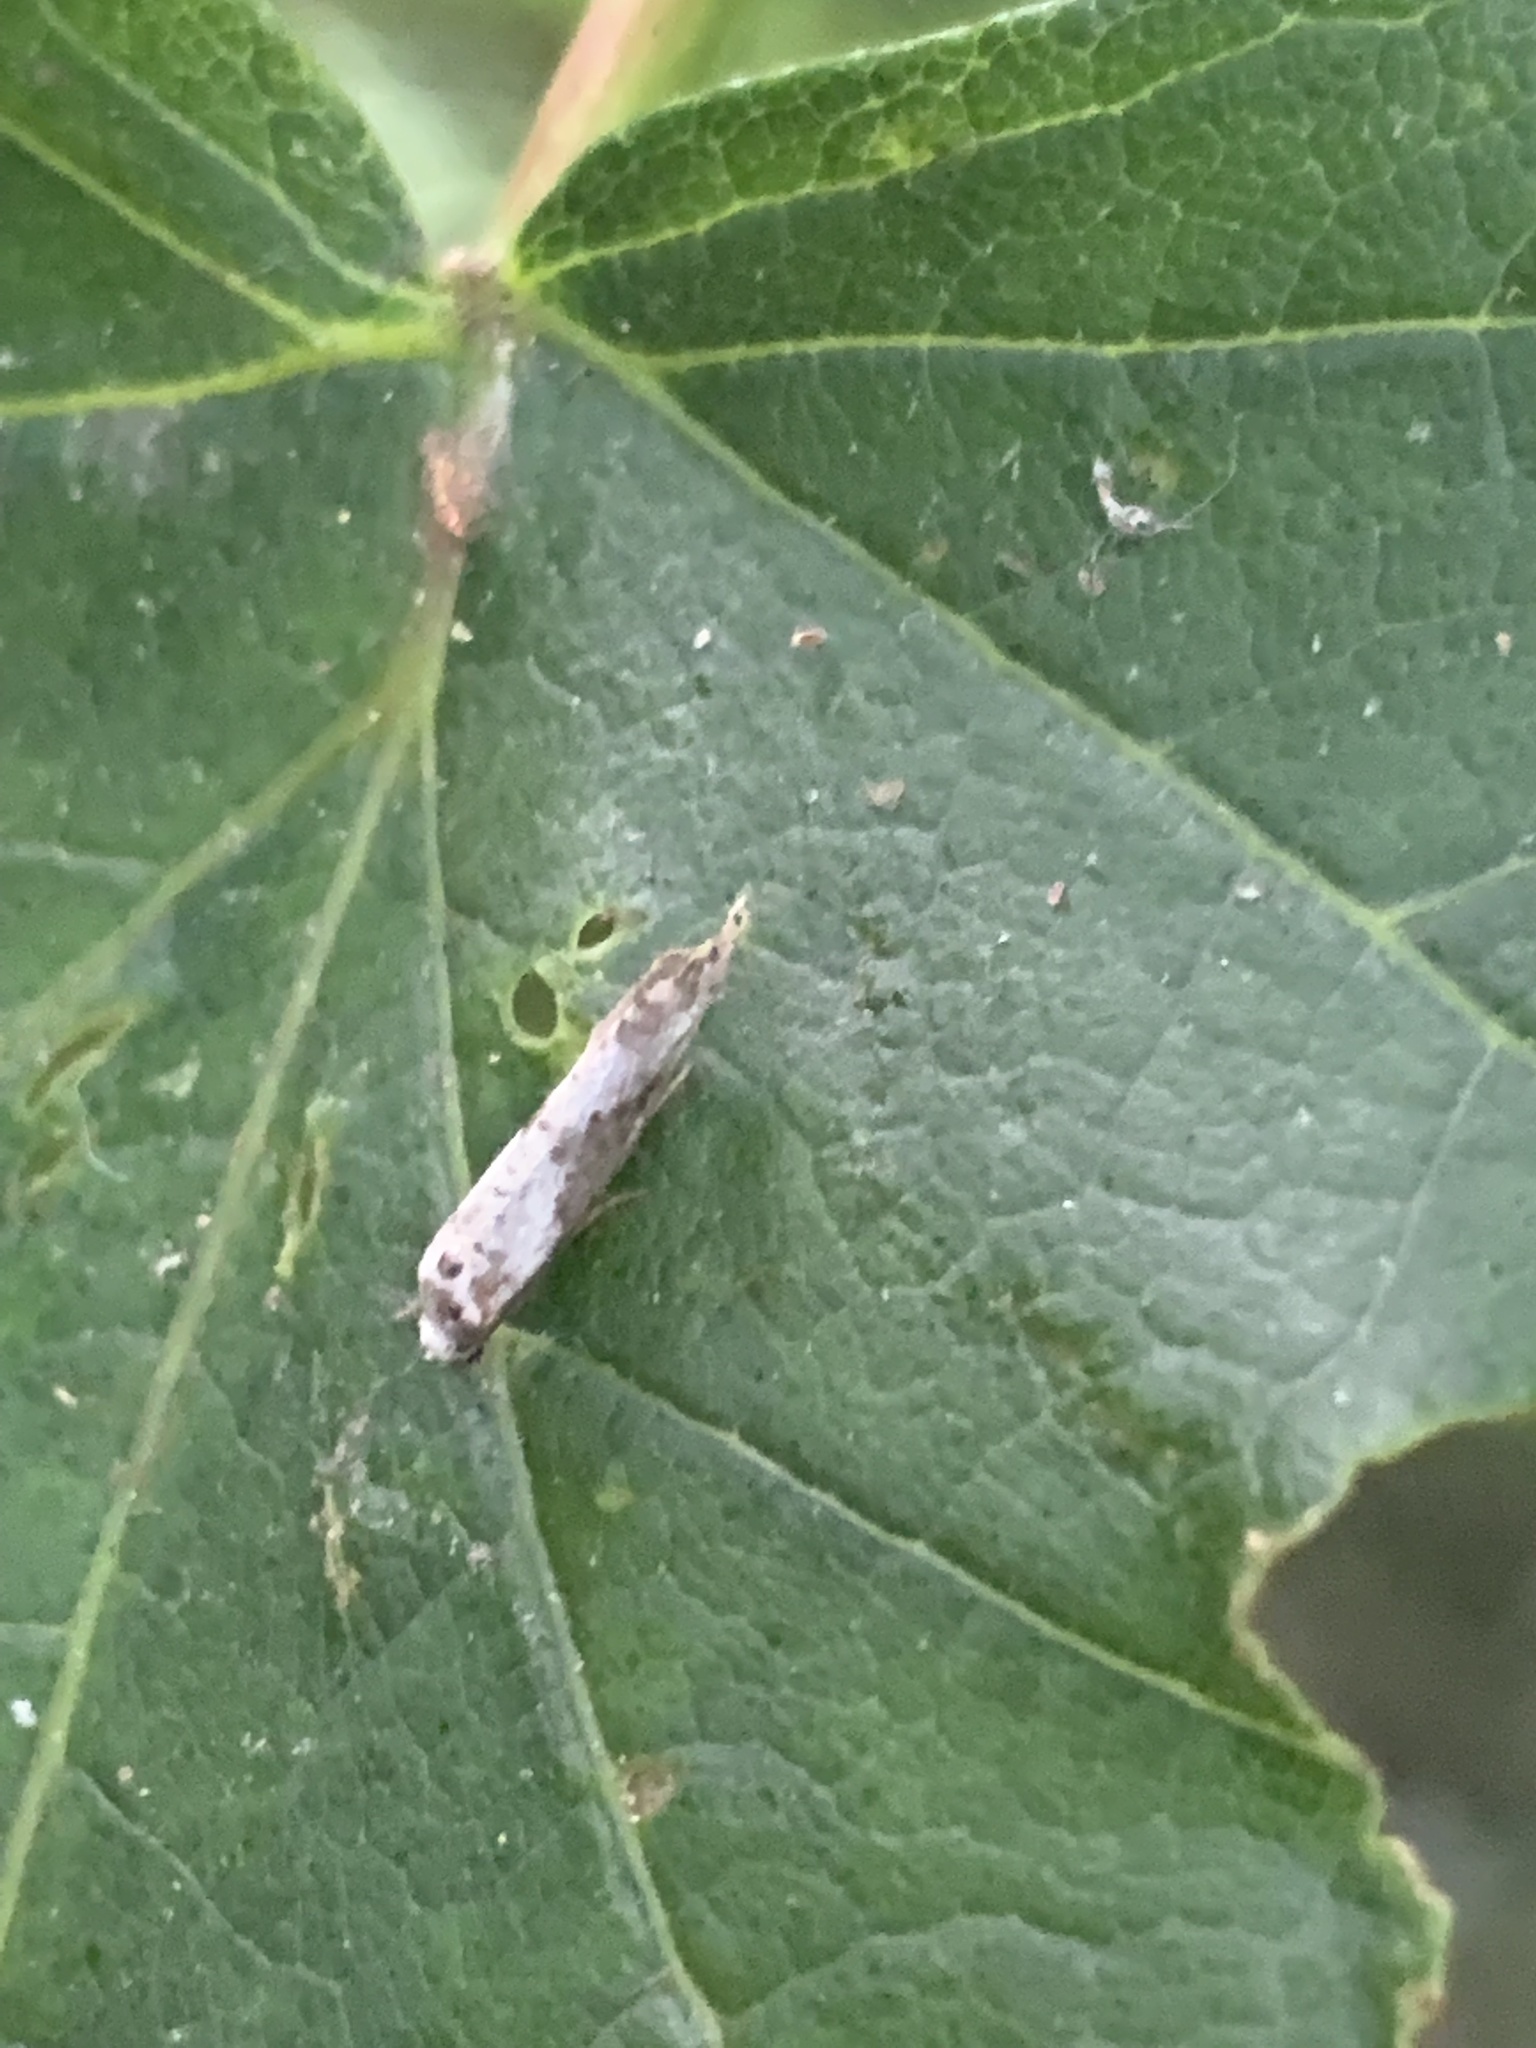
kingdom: Animalia
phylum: Arthropoda
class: Insecta
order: Lepidoptera
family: Praydidae
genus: Prays
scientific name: Prays fraxinella
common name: Ash bud moth
